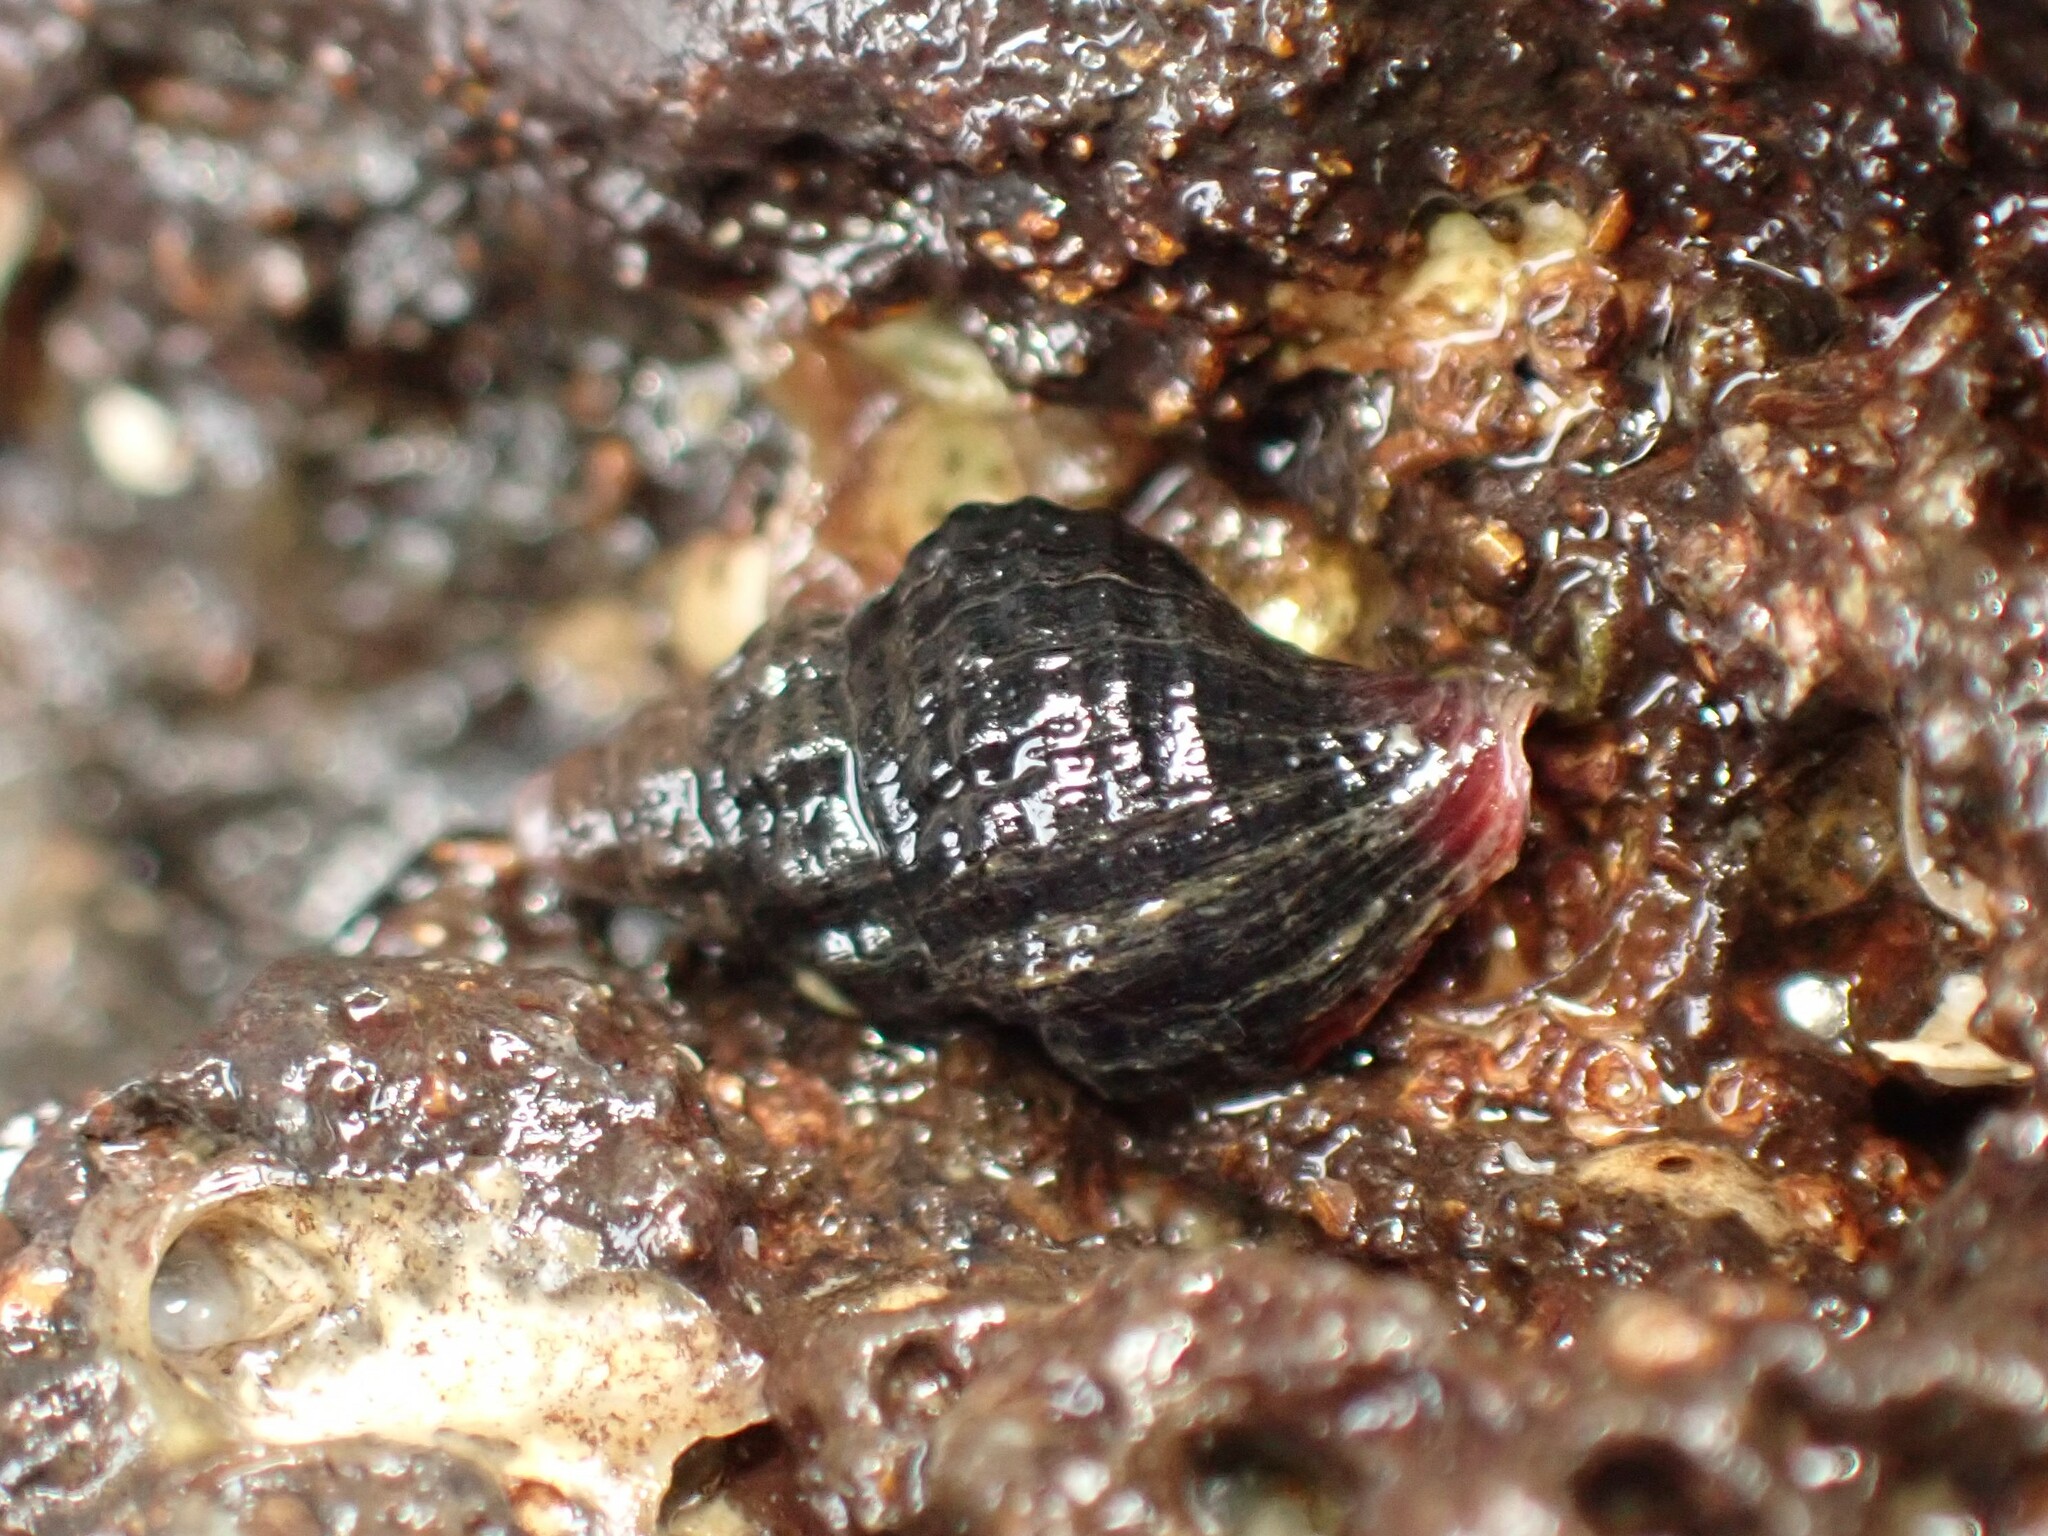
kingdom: Animalia
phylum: Mollusca
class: Gastropoda
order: Neogastropoda
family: Fasciolariidae
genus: Taron
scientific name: Taron dubius
